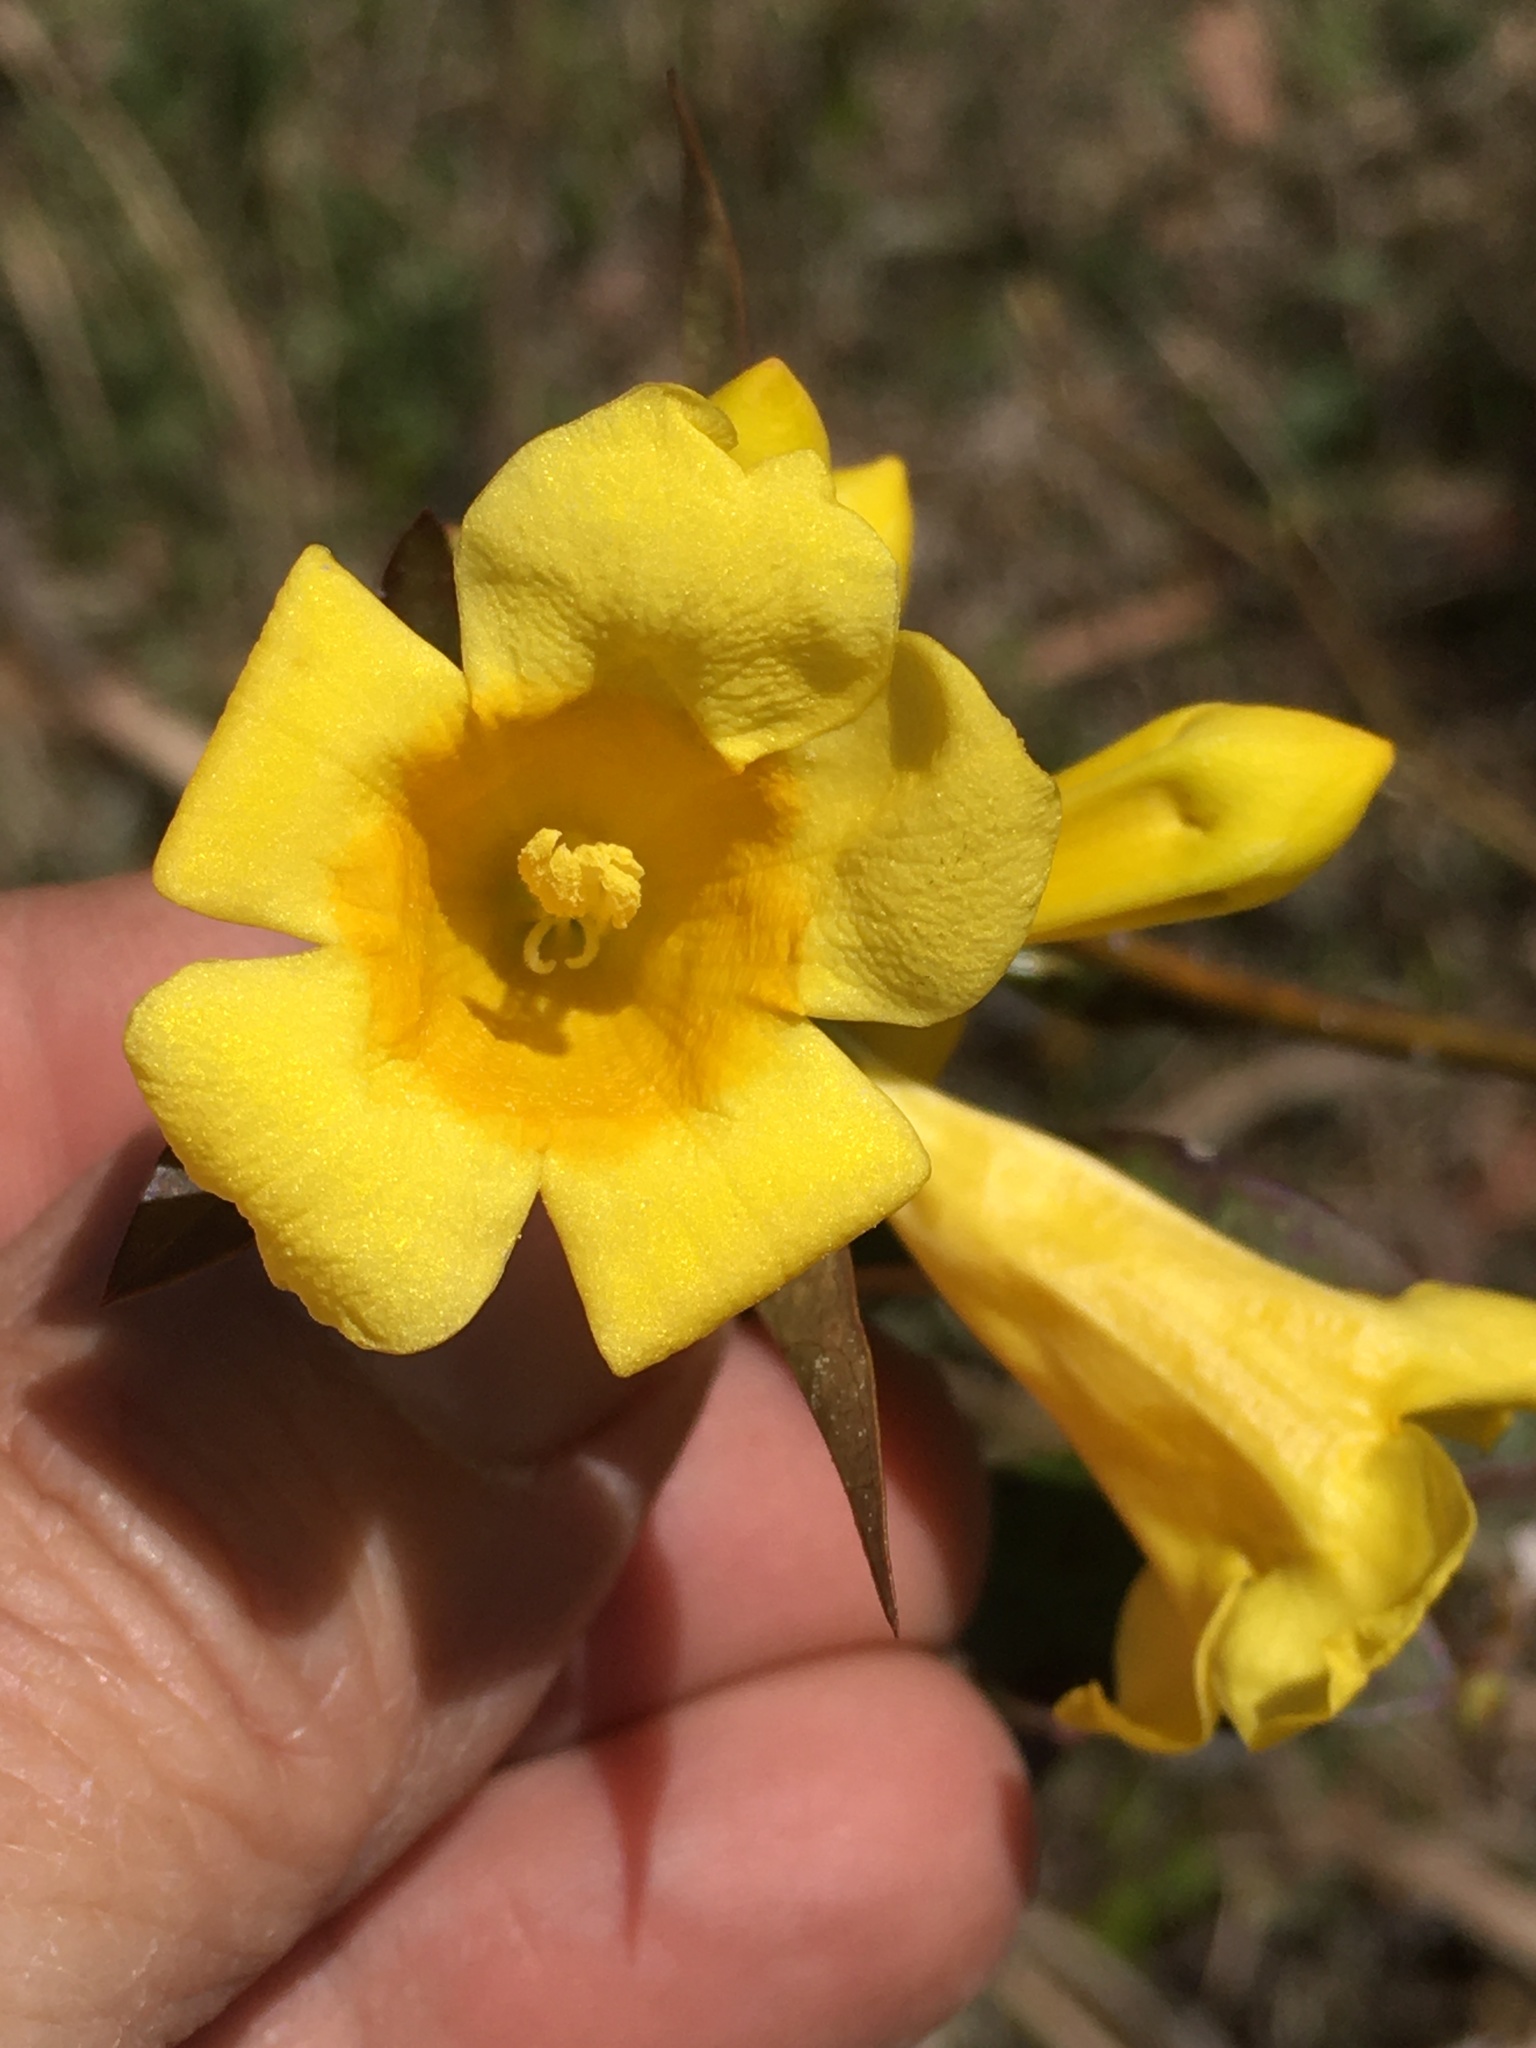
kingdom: Plantae
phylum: Tracheophyta
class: Magnoliopsida
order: Gentianales
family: Gelsemiaceae
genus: Gelsemium
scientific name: Gelsemium sempervirens
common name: Carolina-jasmine
